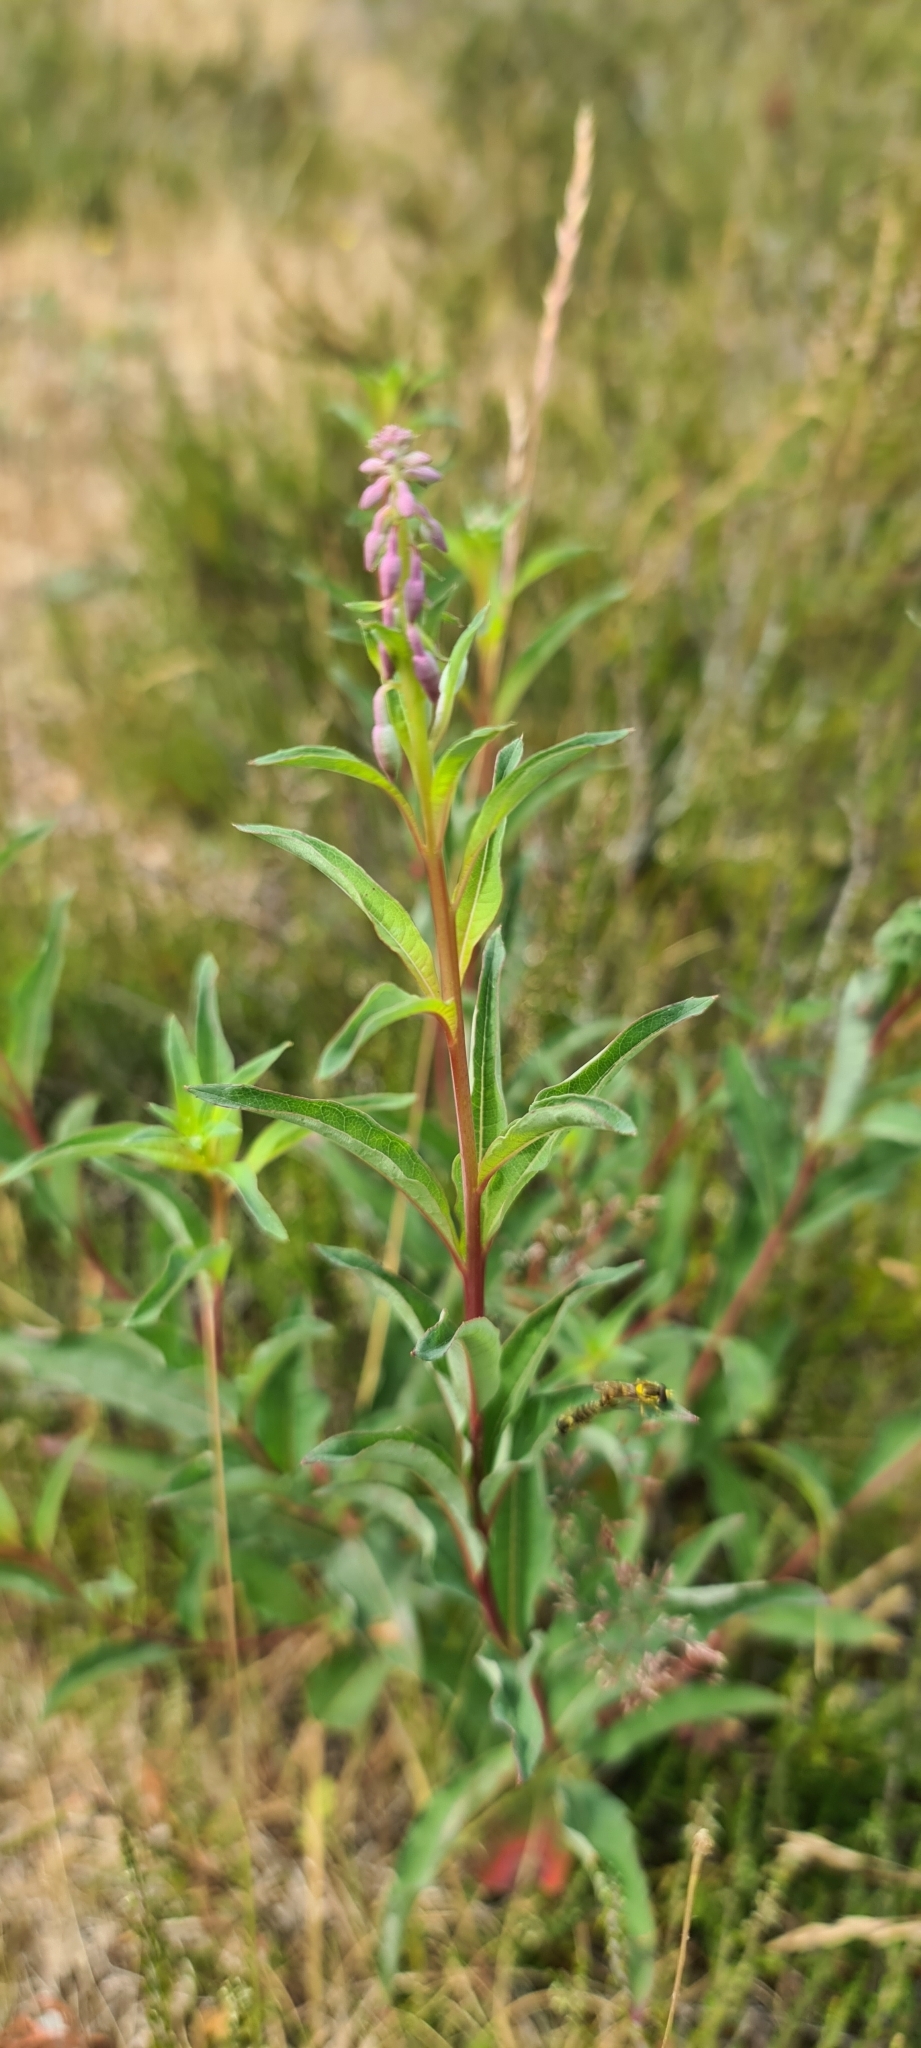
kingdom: Plantae
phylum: Tracheophyta
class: Magnoliopsida
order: Myrtales
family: Onagraceae
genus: Chamaenerion
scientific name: Chamaenerion angustifolium
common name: Fireweed
